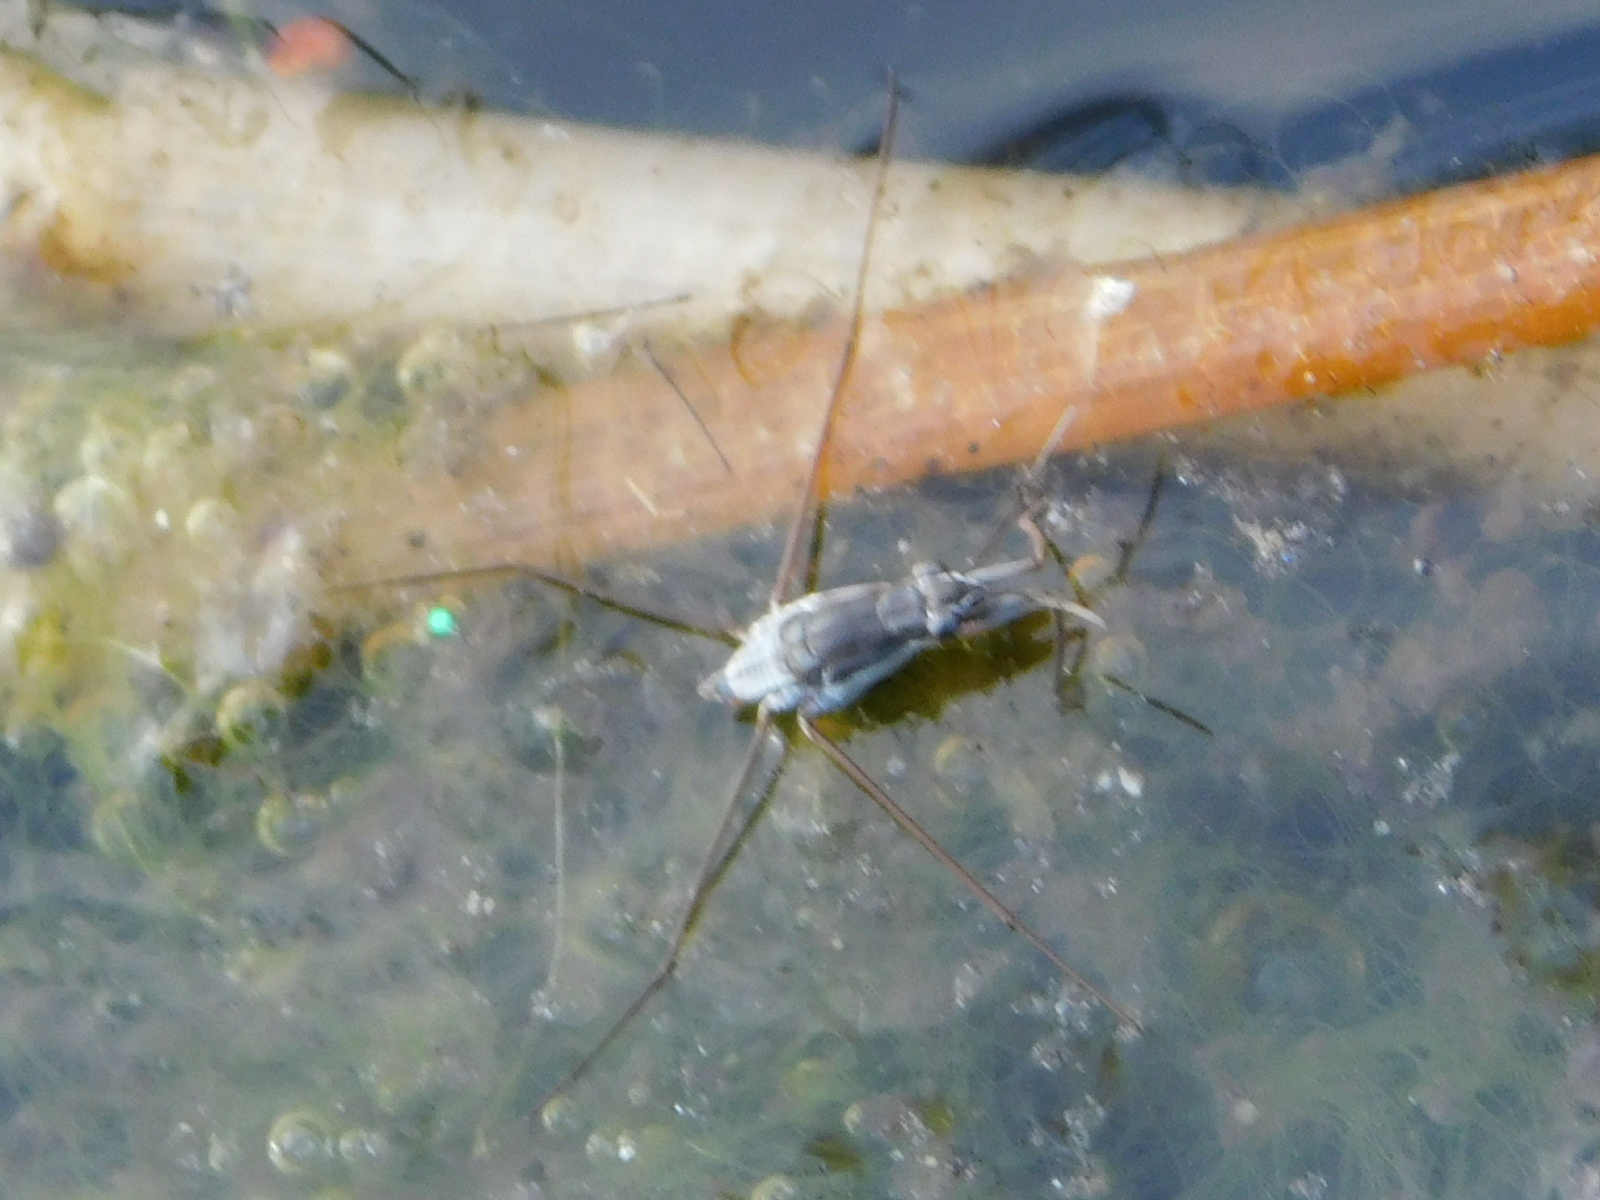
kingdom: Animalia
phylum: Arthropoda
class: Insecta
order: Hemiptera
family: Gerridae
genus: Neogerris
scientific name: Neogerris hesione
